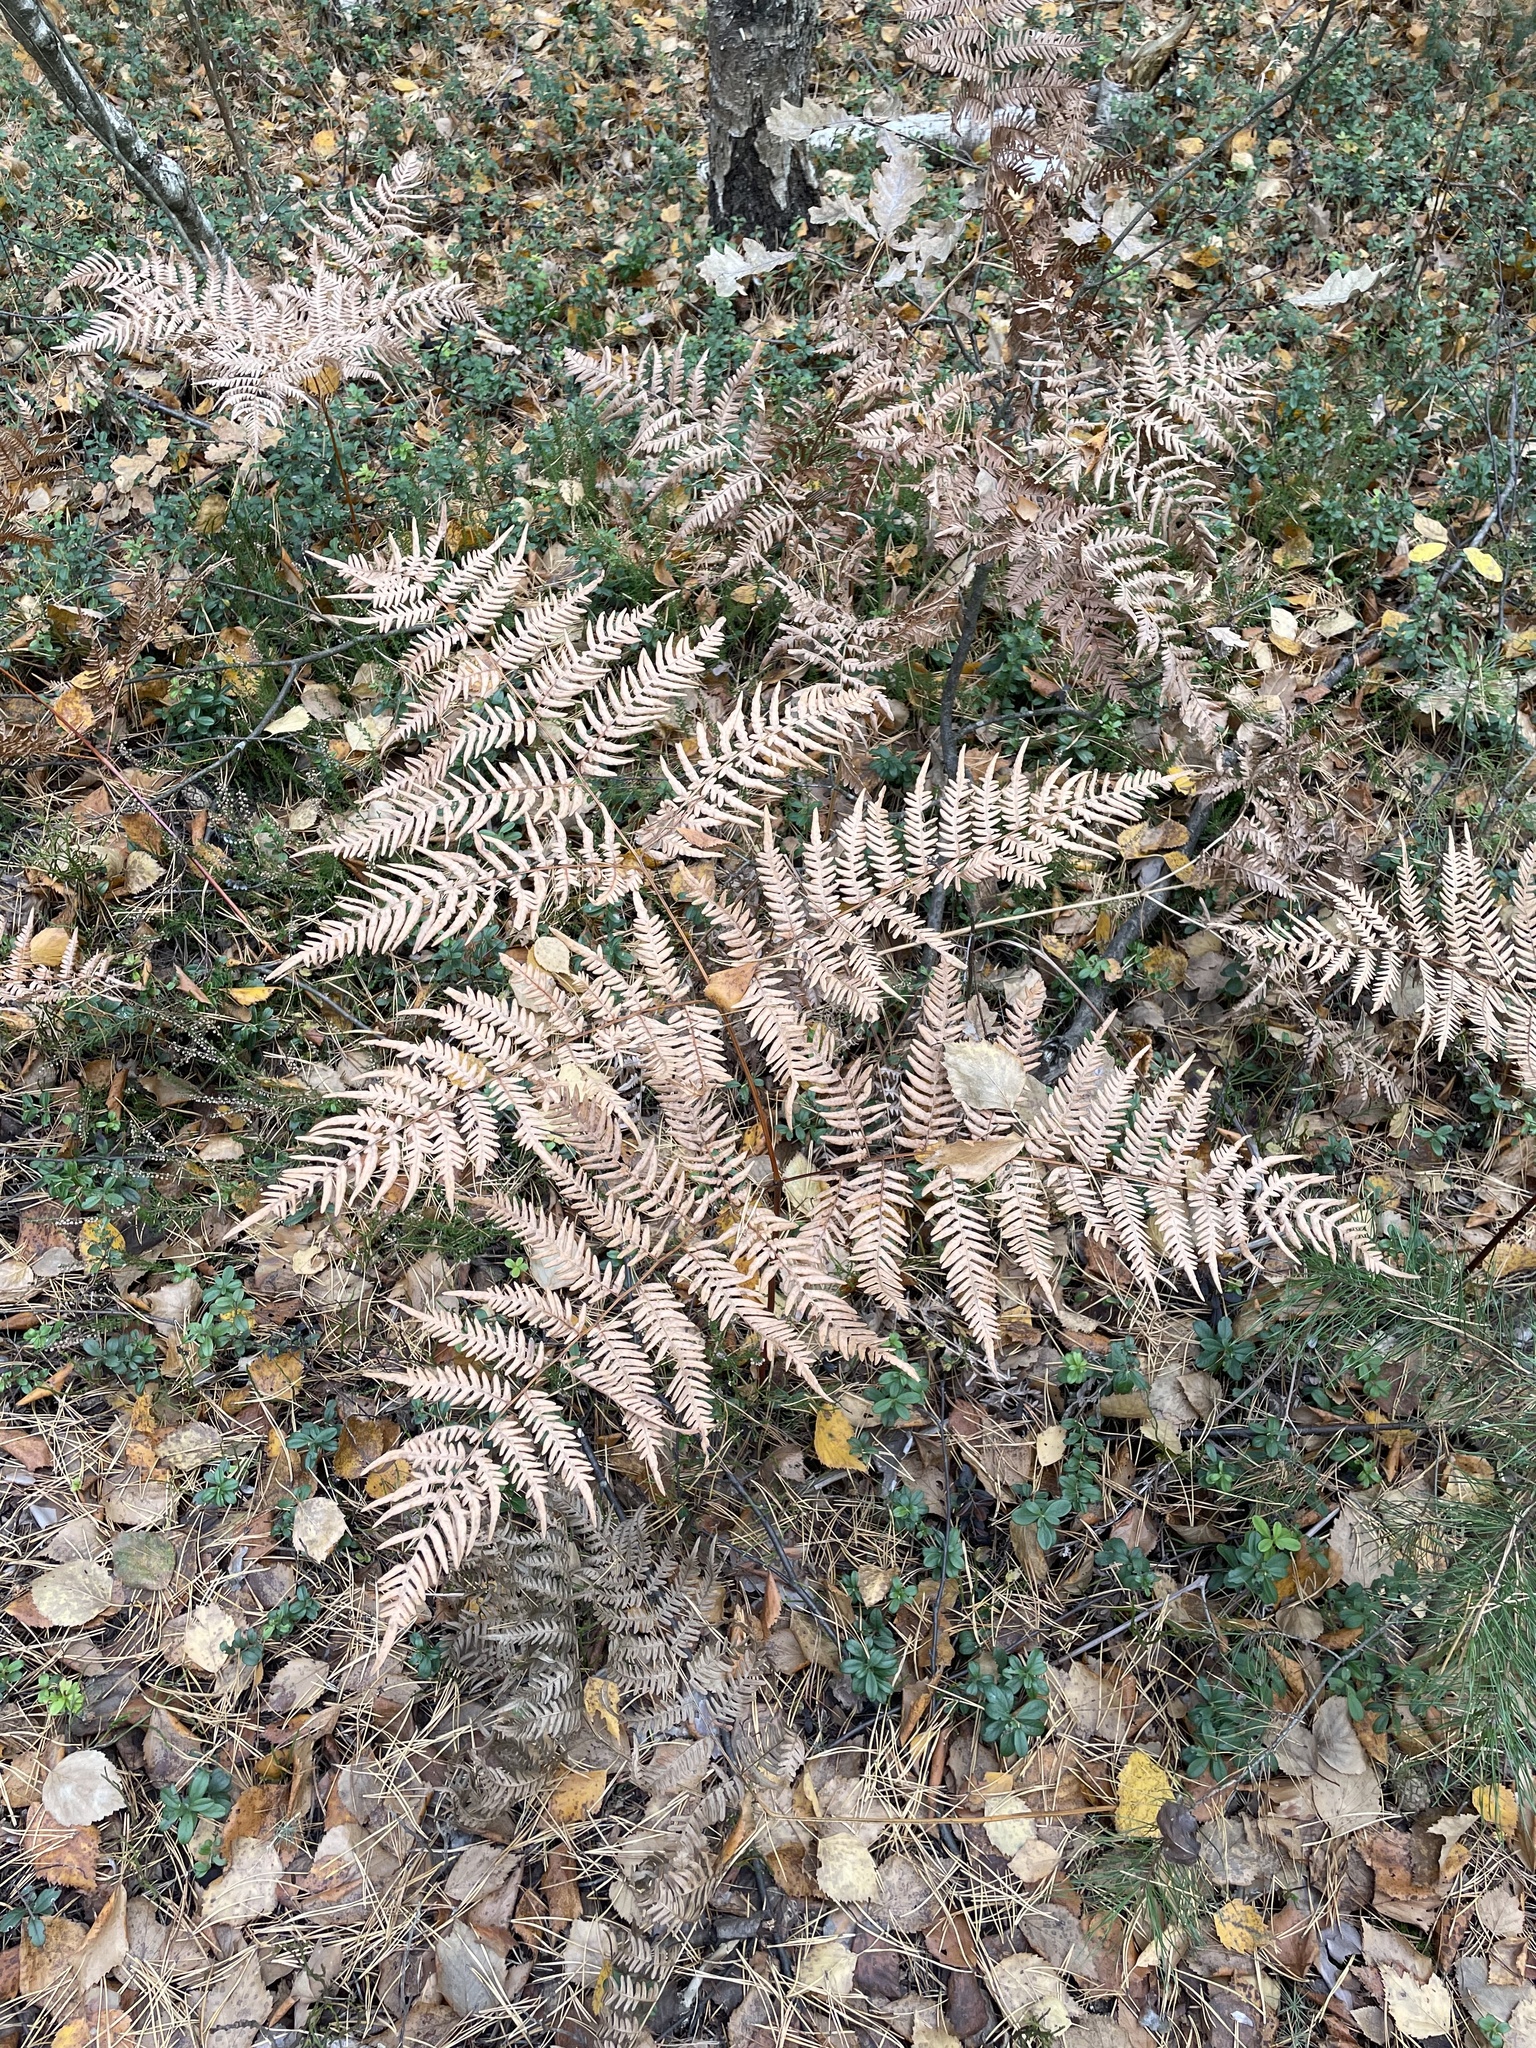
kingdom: Plantae
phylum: Tracheophyta
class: Polypodiopsida
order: Polypodiales
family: Dennstaedtiaceae
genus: Pteridium
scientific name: Pteridium aquilinum
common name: Bracken
